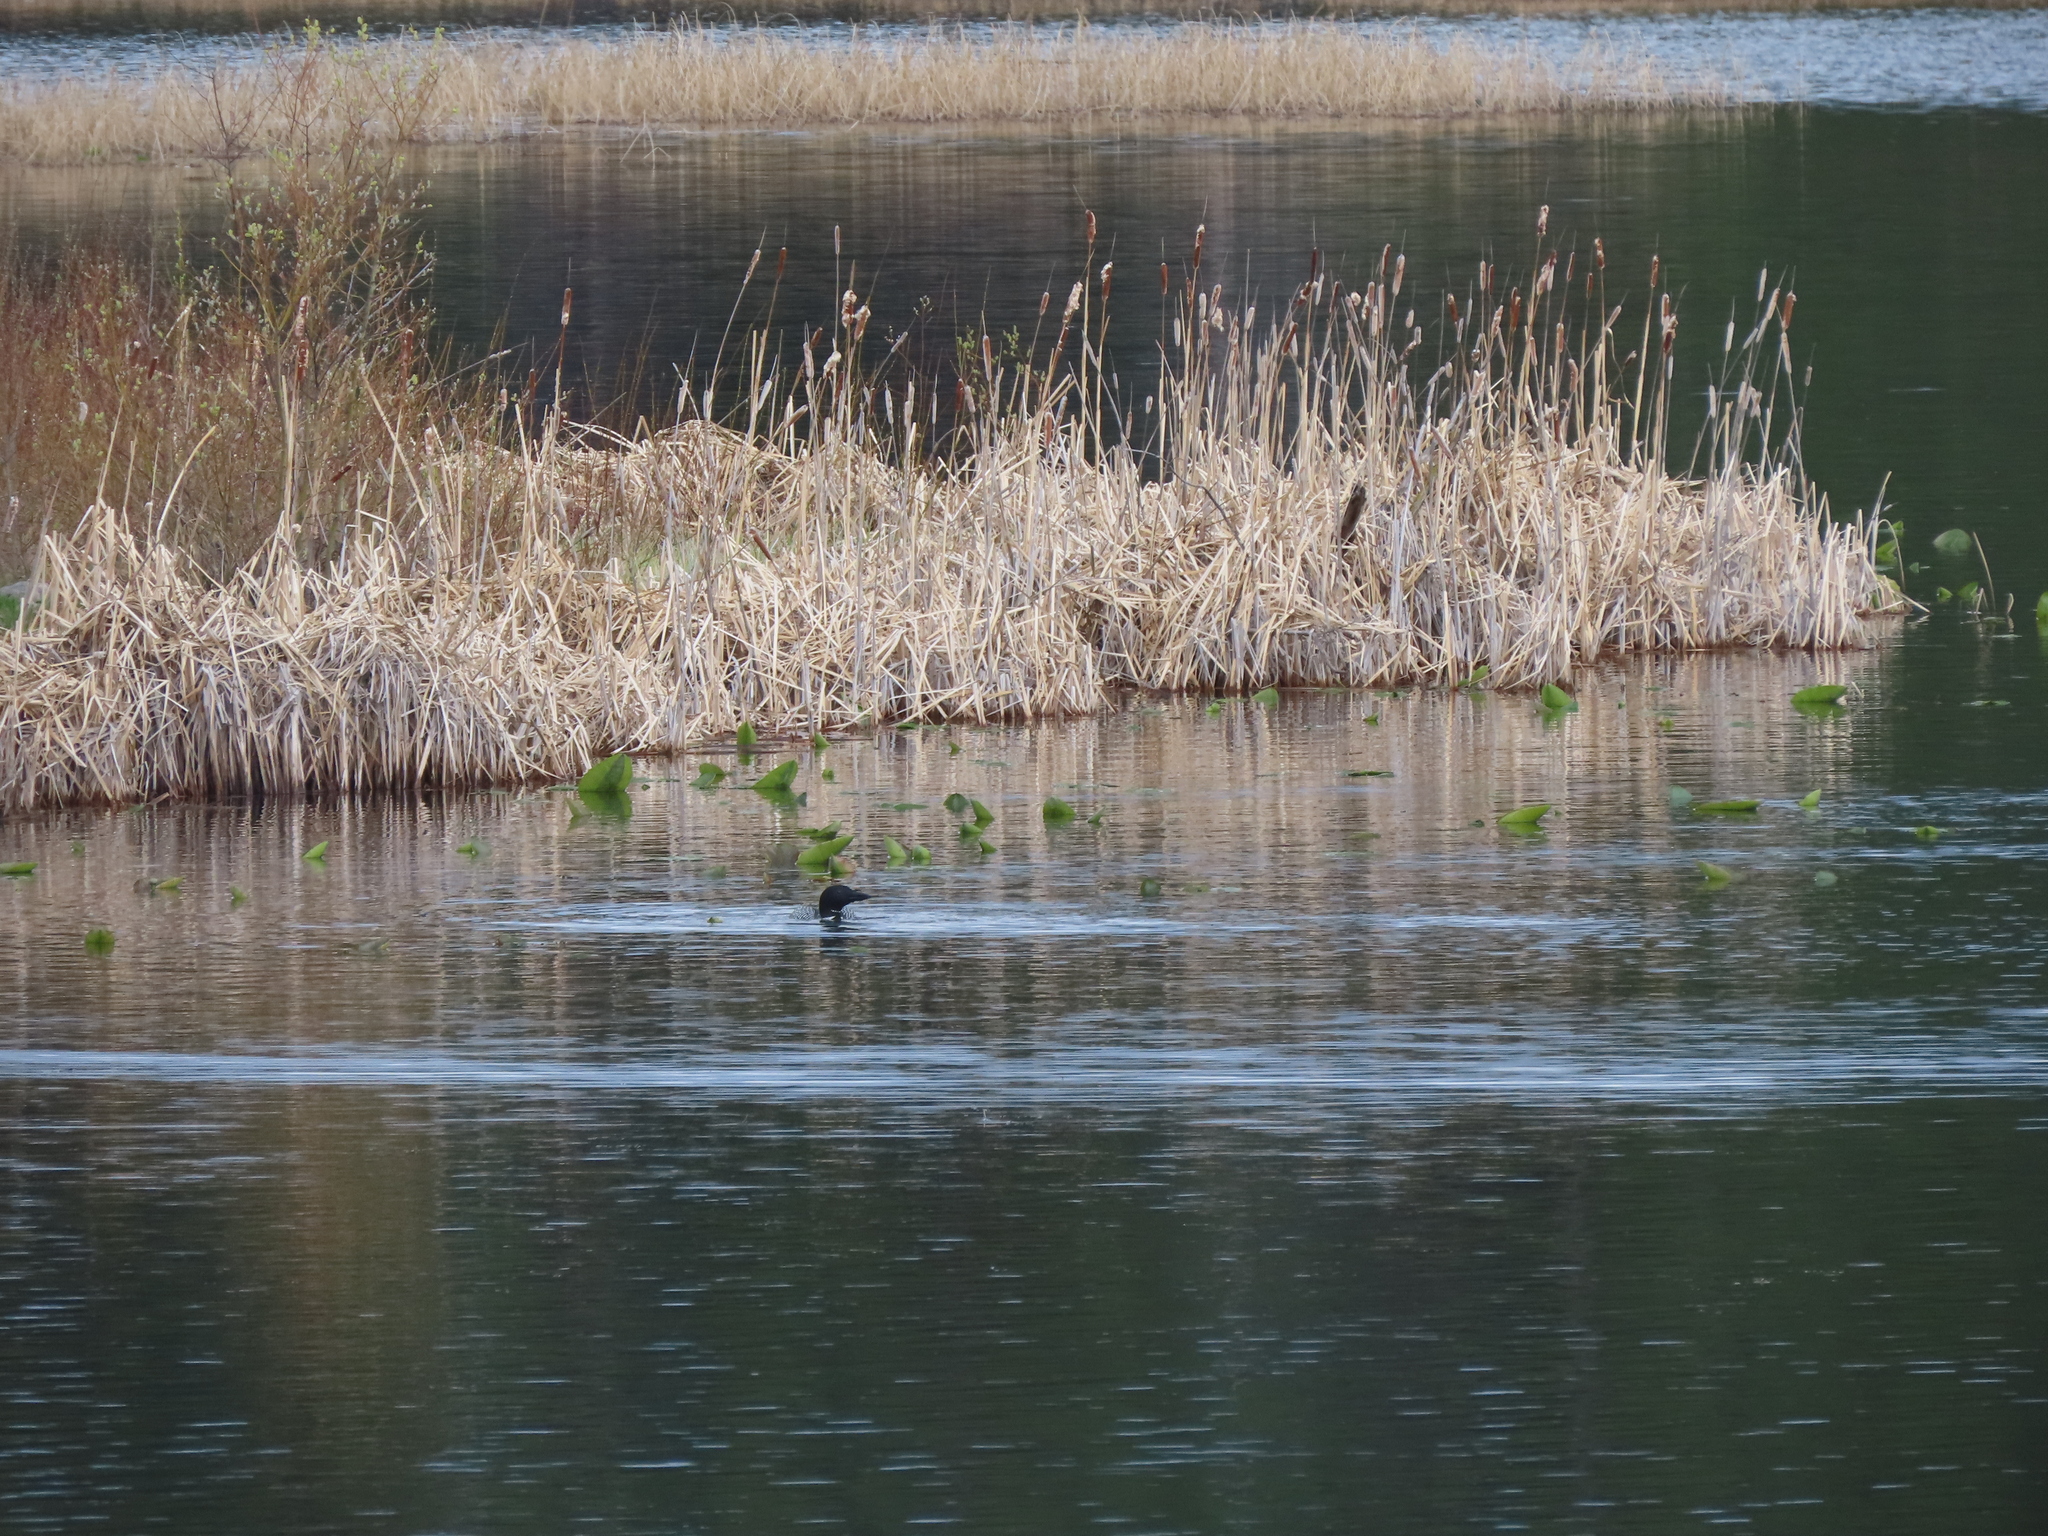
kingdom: Animalia
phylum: Chordata
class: Aves
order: Gaviiformes
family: Gaviidae
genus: Gavia
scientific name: Gavia immer
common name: Common loon
